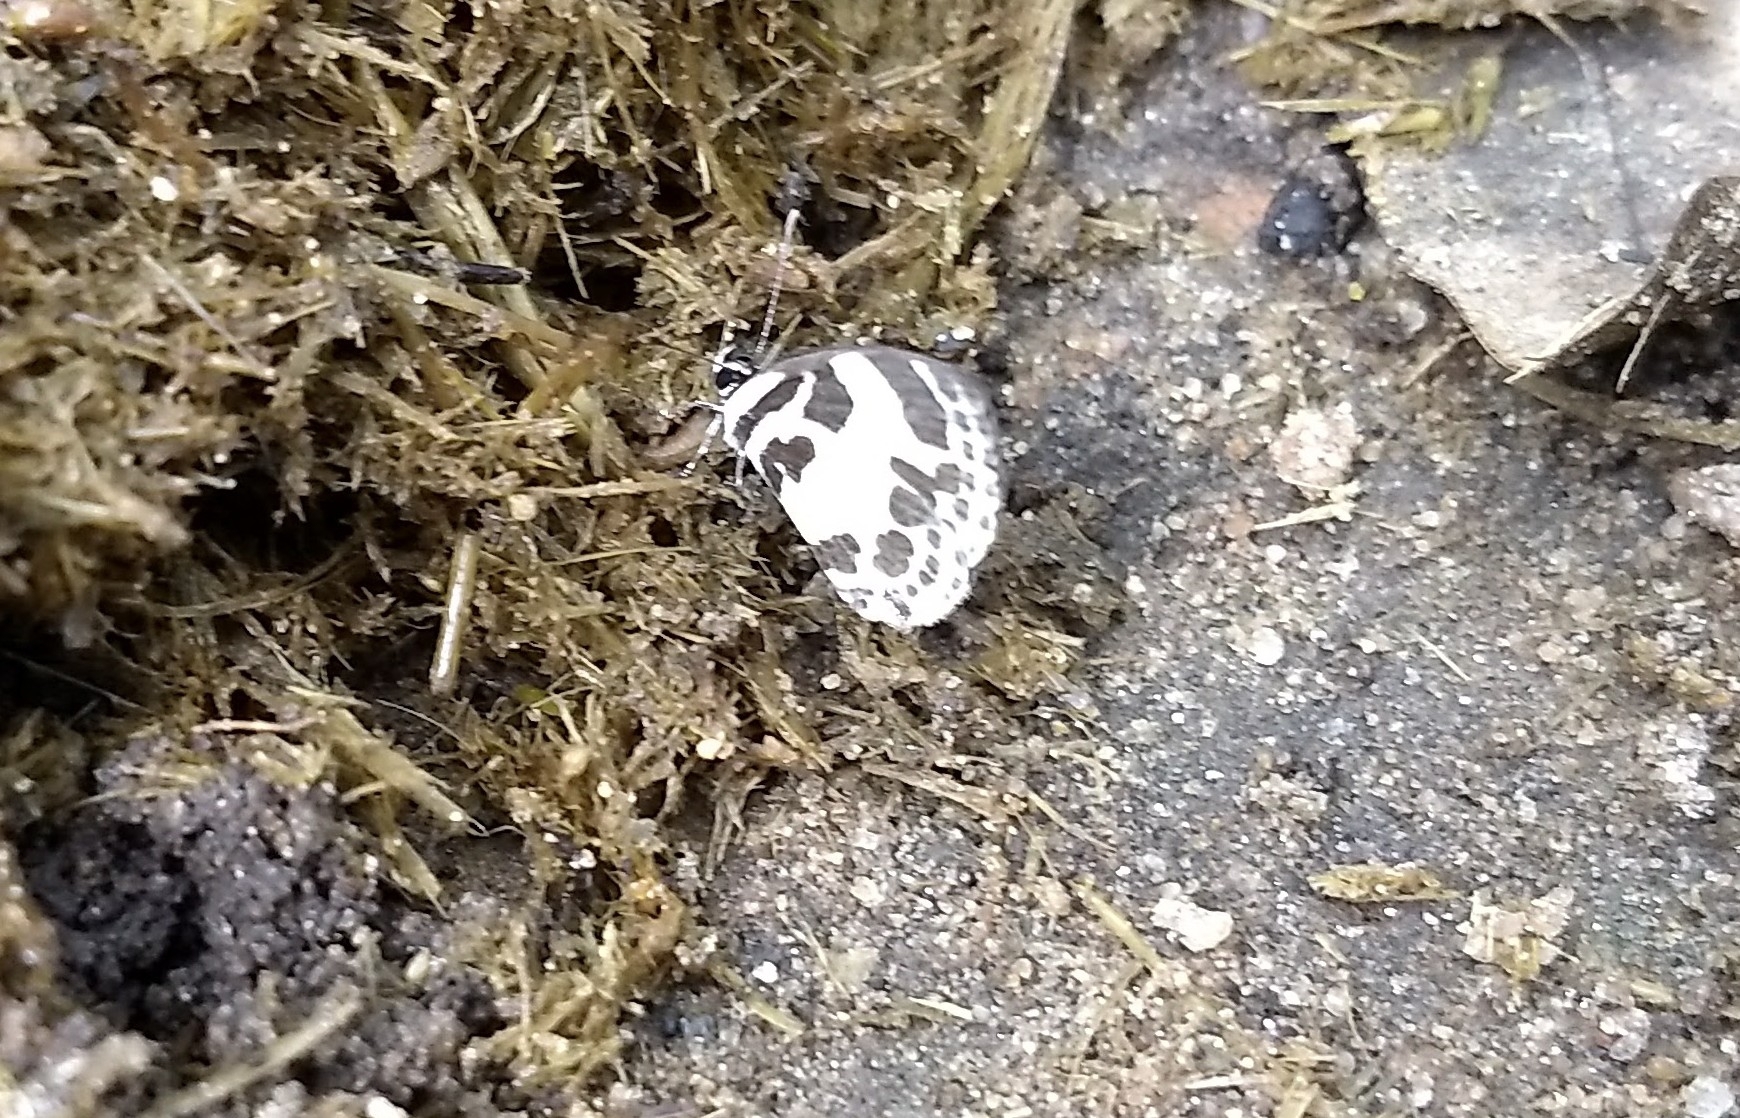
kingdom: Animalia
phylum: Arthropoda
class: Insecta
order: Lepidoptera
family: Lycaenidae
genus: Discolampa
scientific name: Discolampa ethion
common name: Banded blue pierrot
